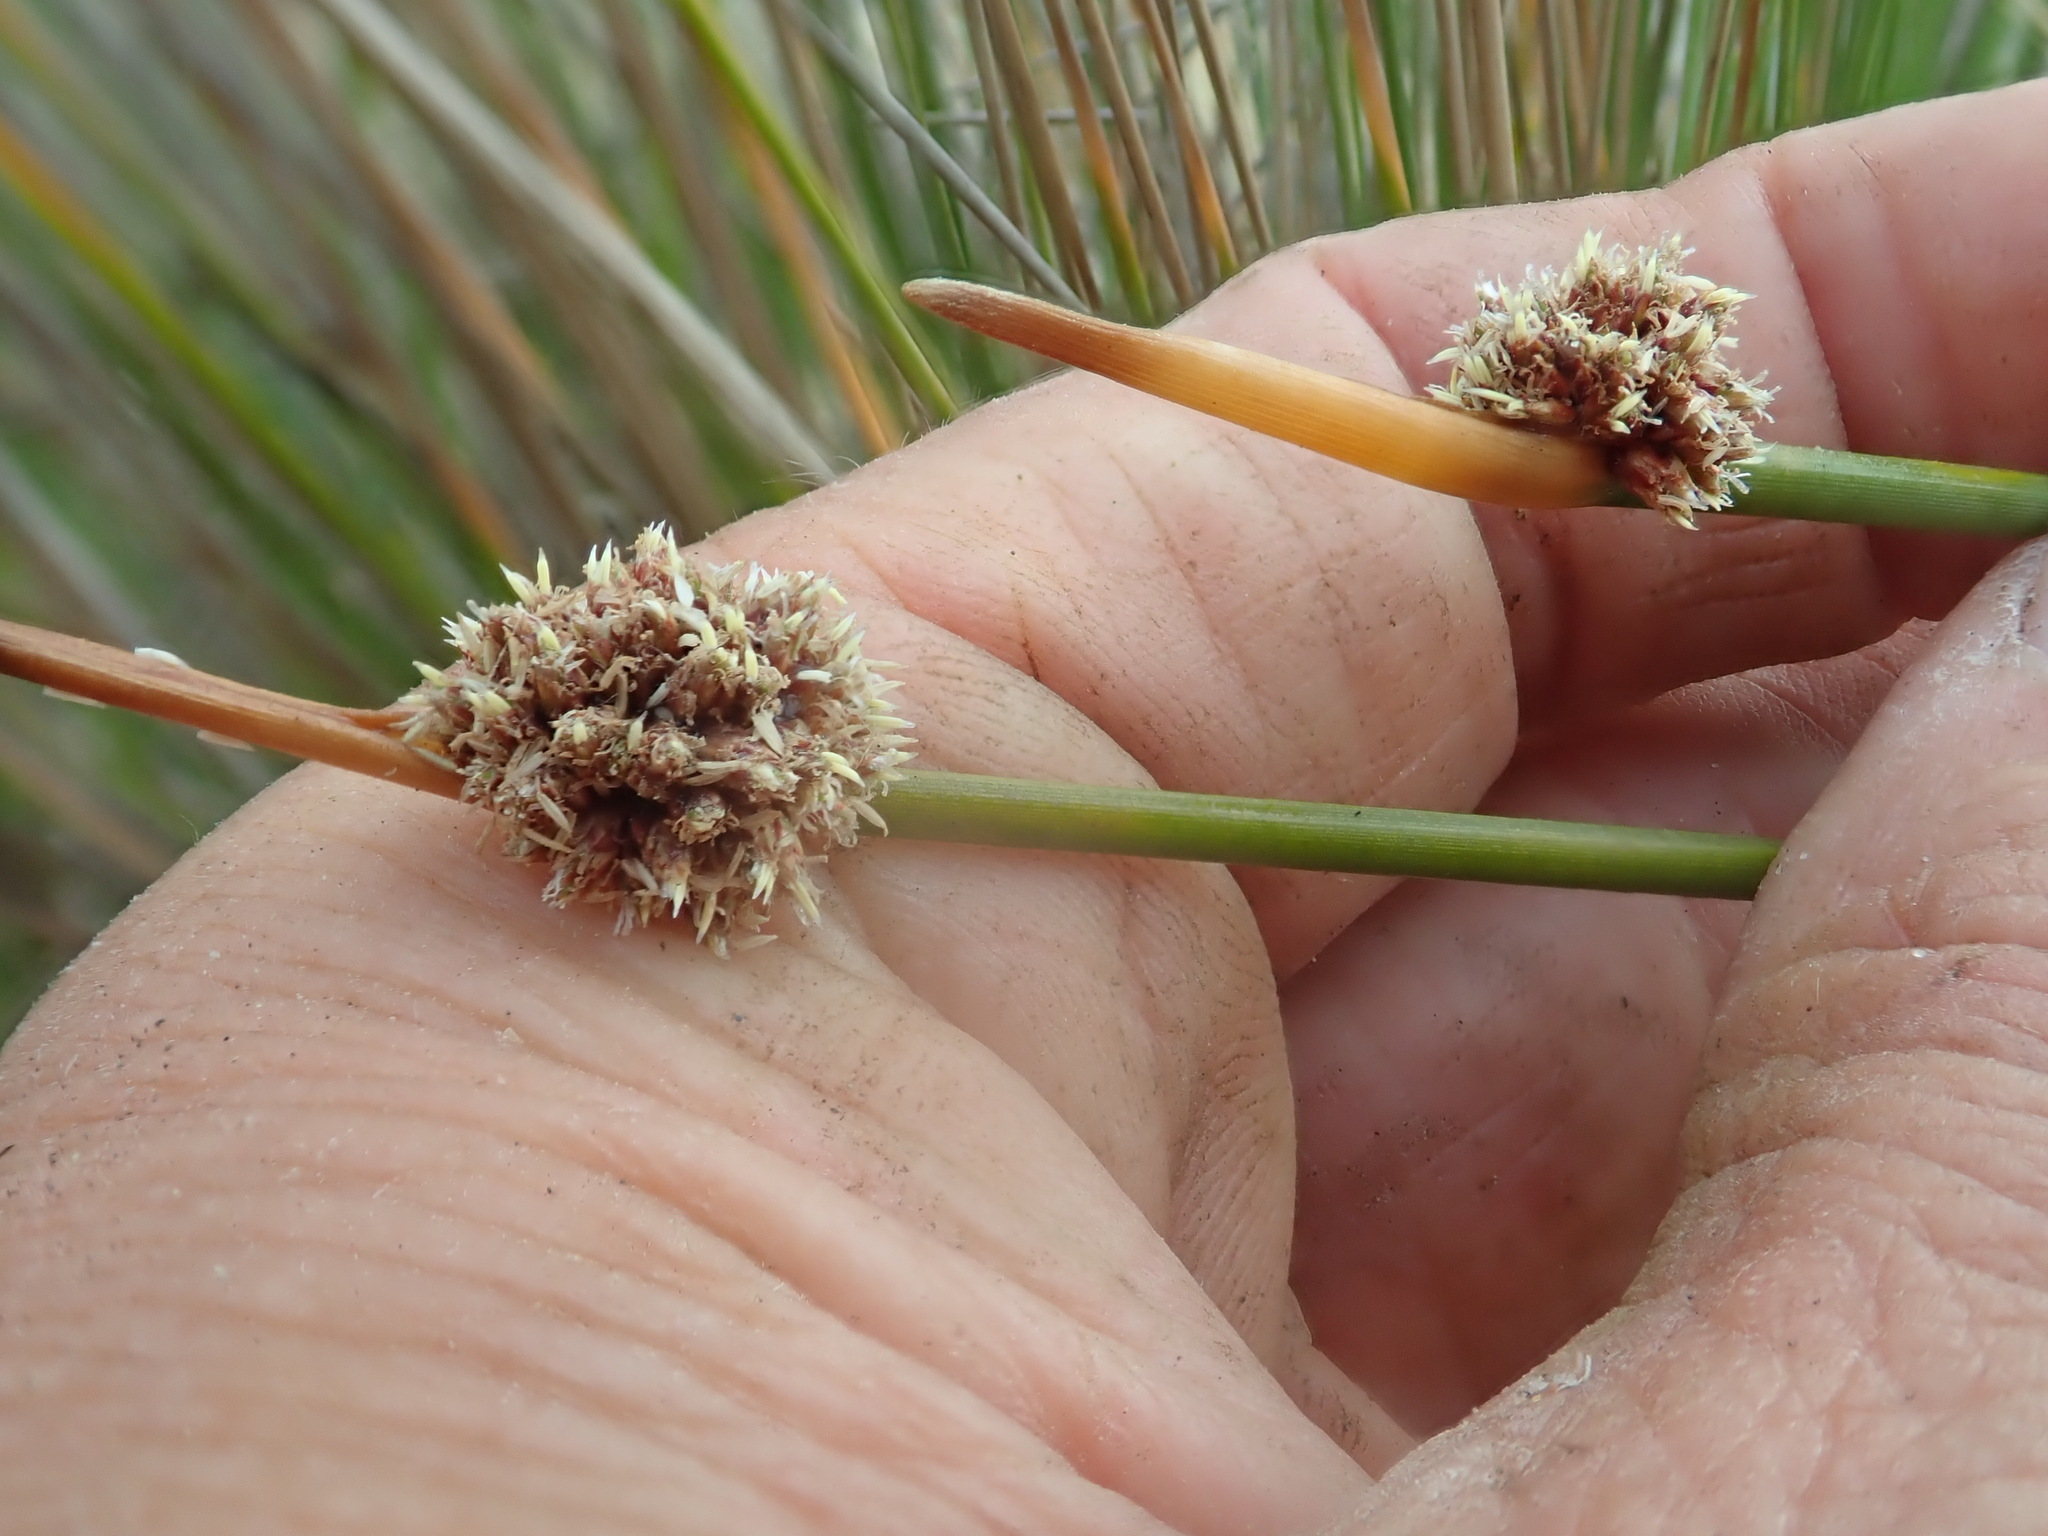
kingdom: Plantae
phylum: Tracheophyta
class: Liliopsida
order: Poales
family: Cyperaceae
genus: Ficinia
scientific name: Ficinia nodosa
